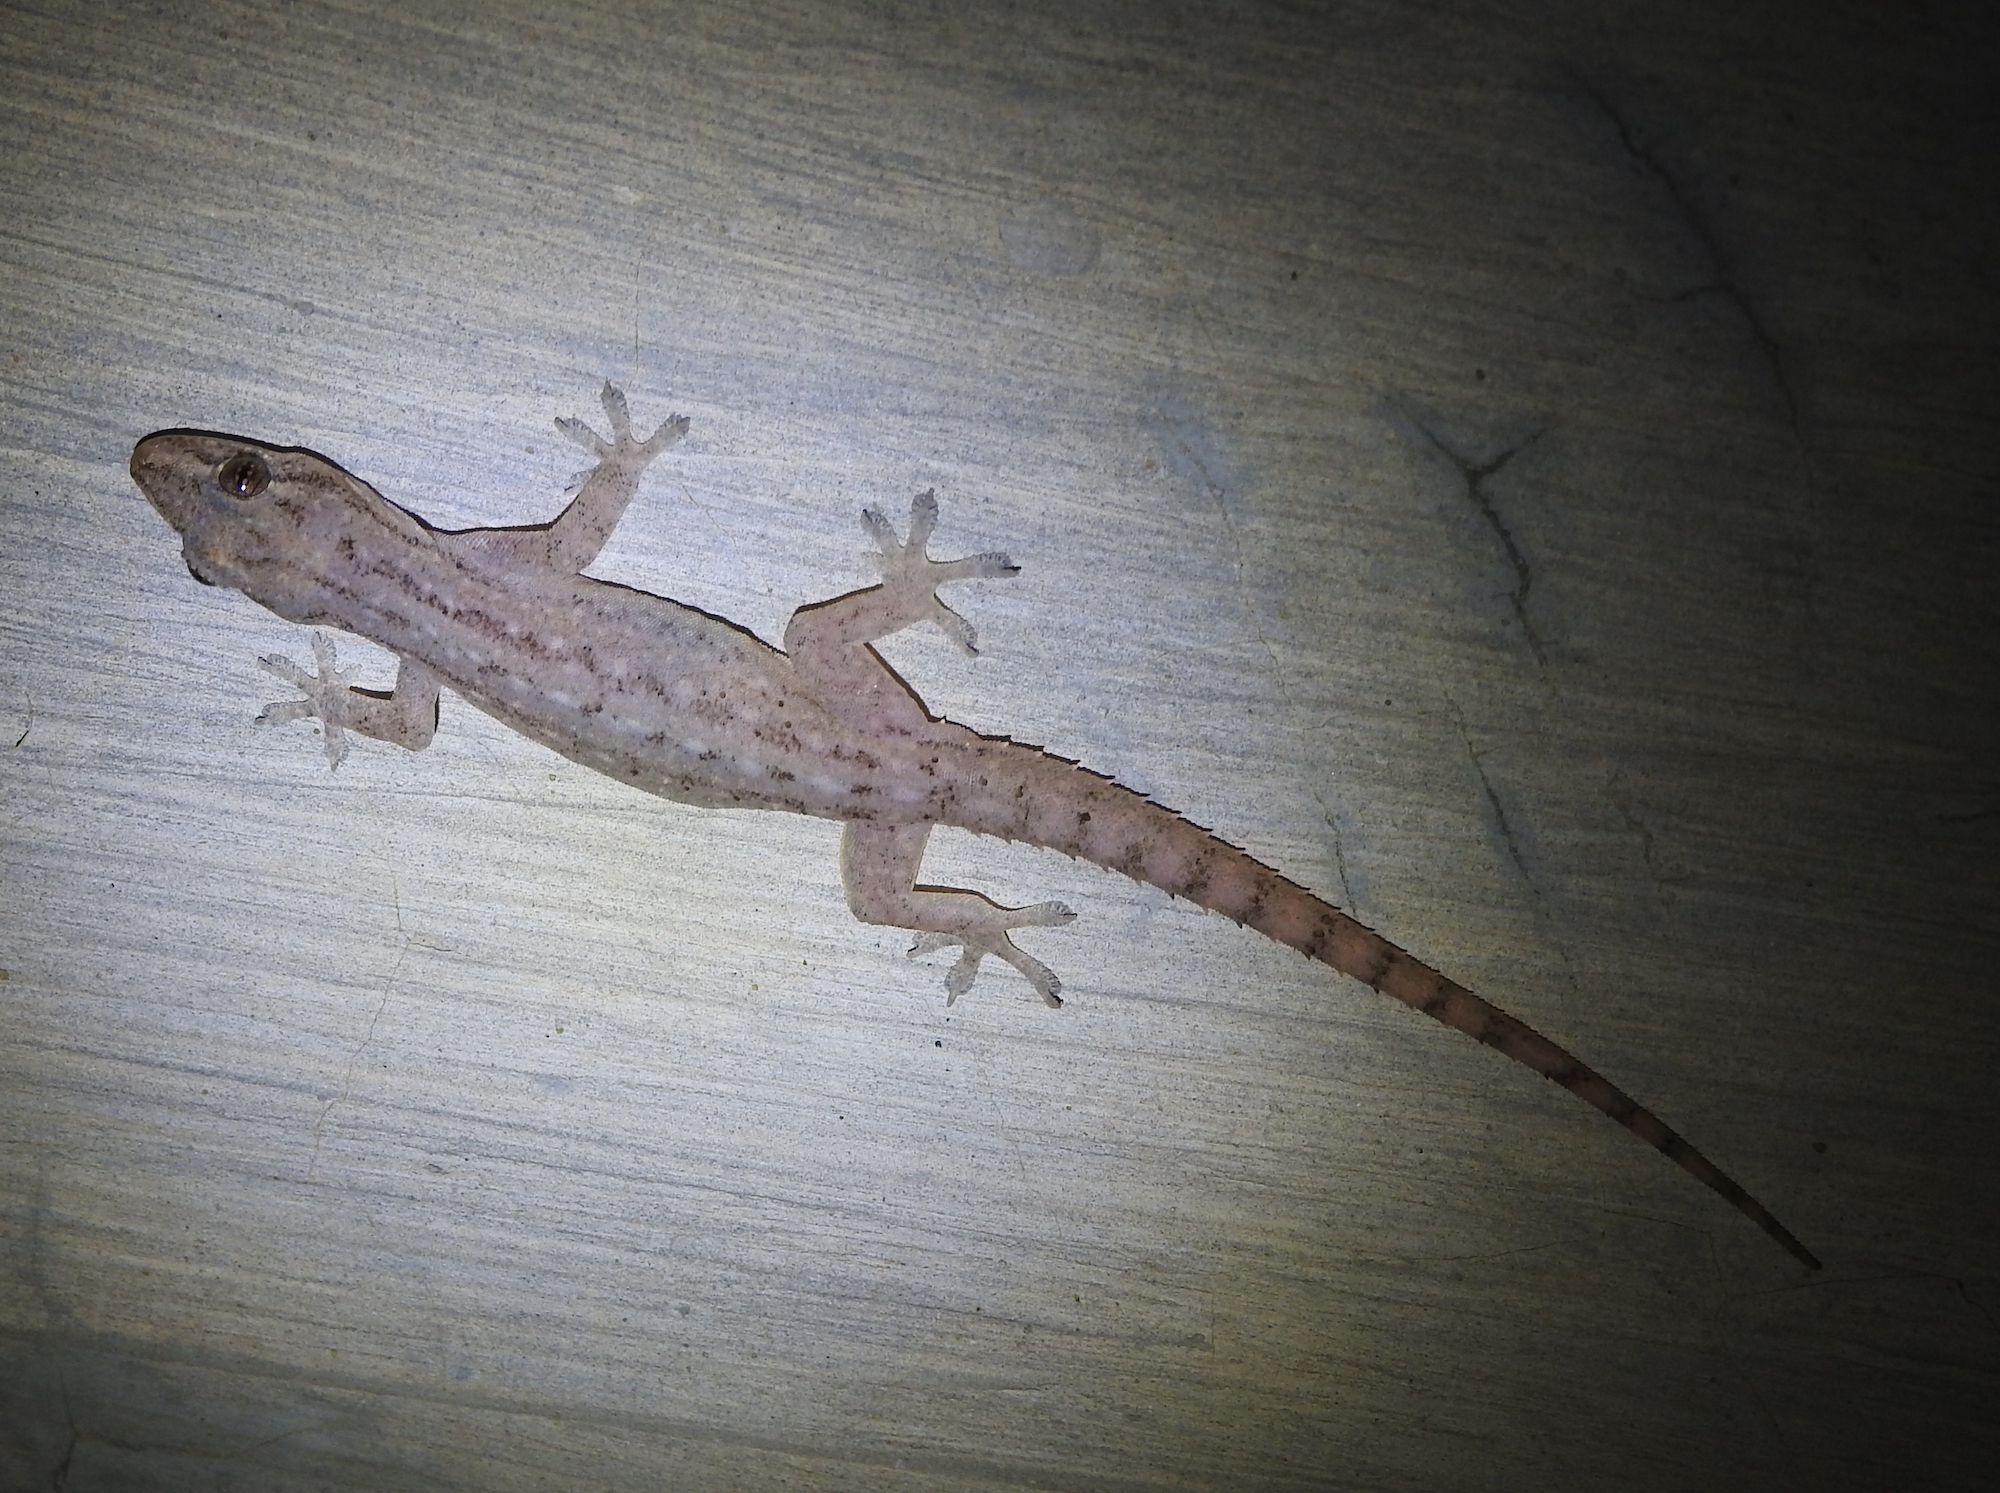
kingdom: Animalia
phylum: Chordata
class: Squamata
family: Gekkonidae
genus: Hemidactylus
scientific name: Hemidactylus frenatus
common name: Common house gecko
